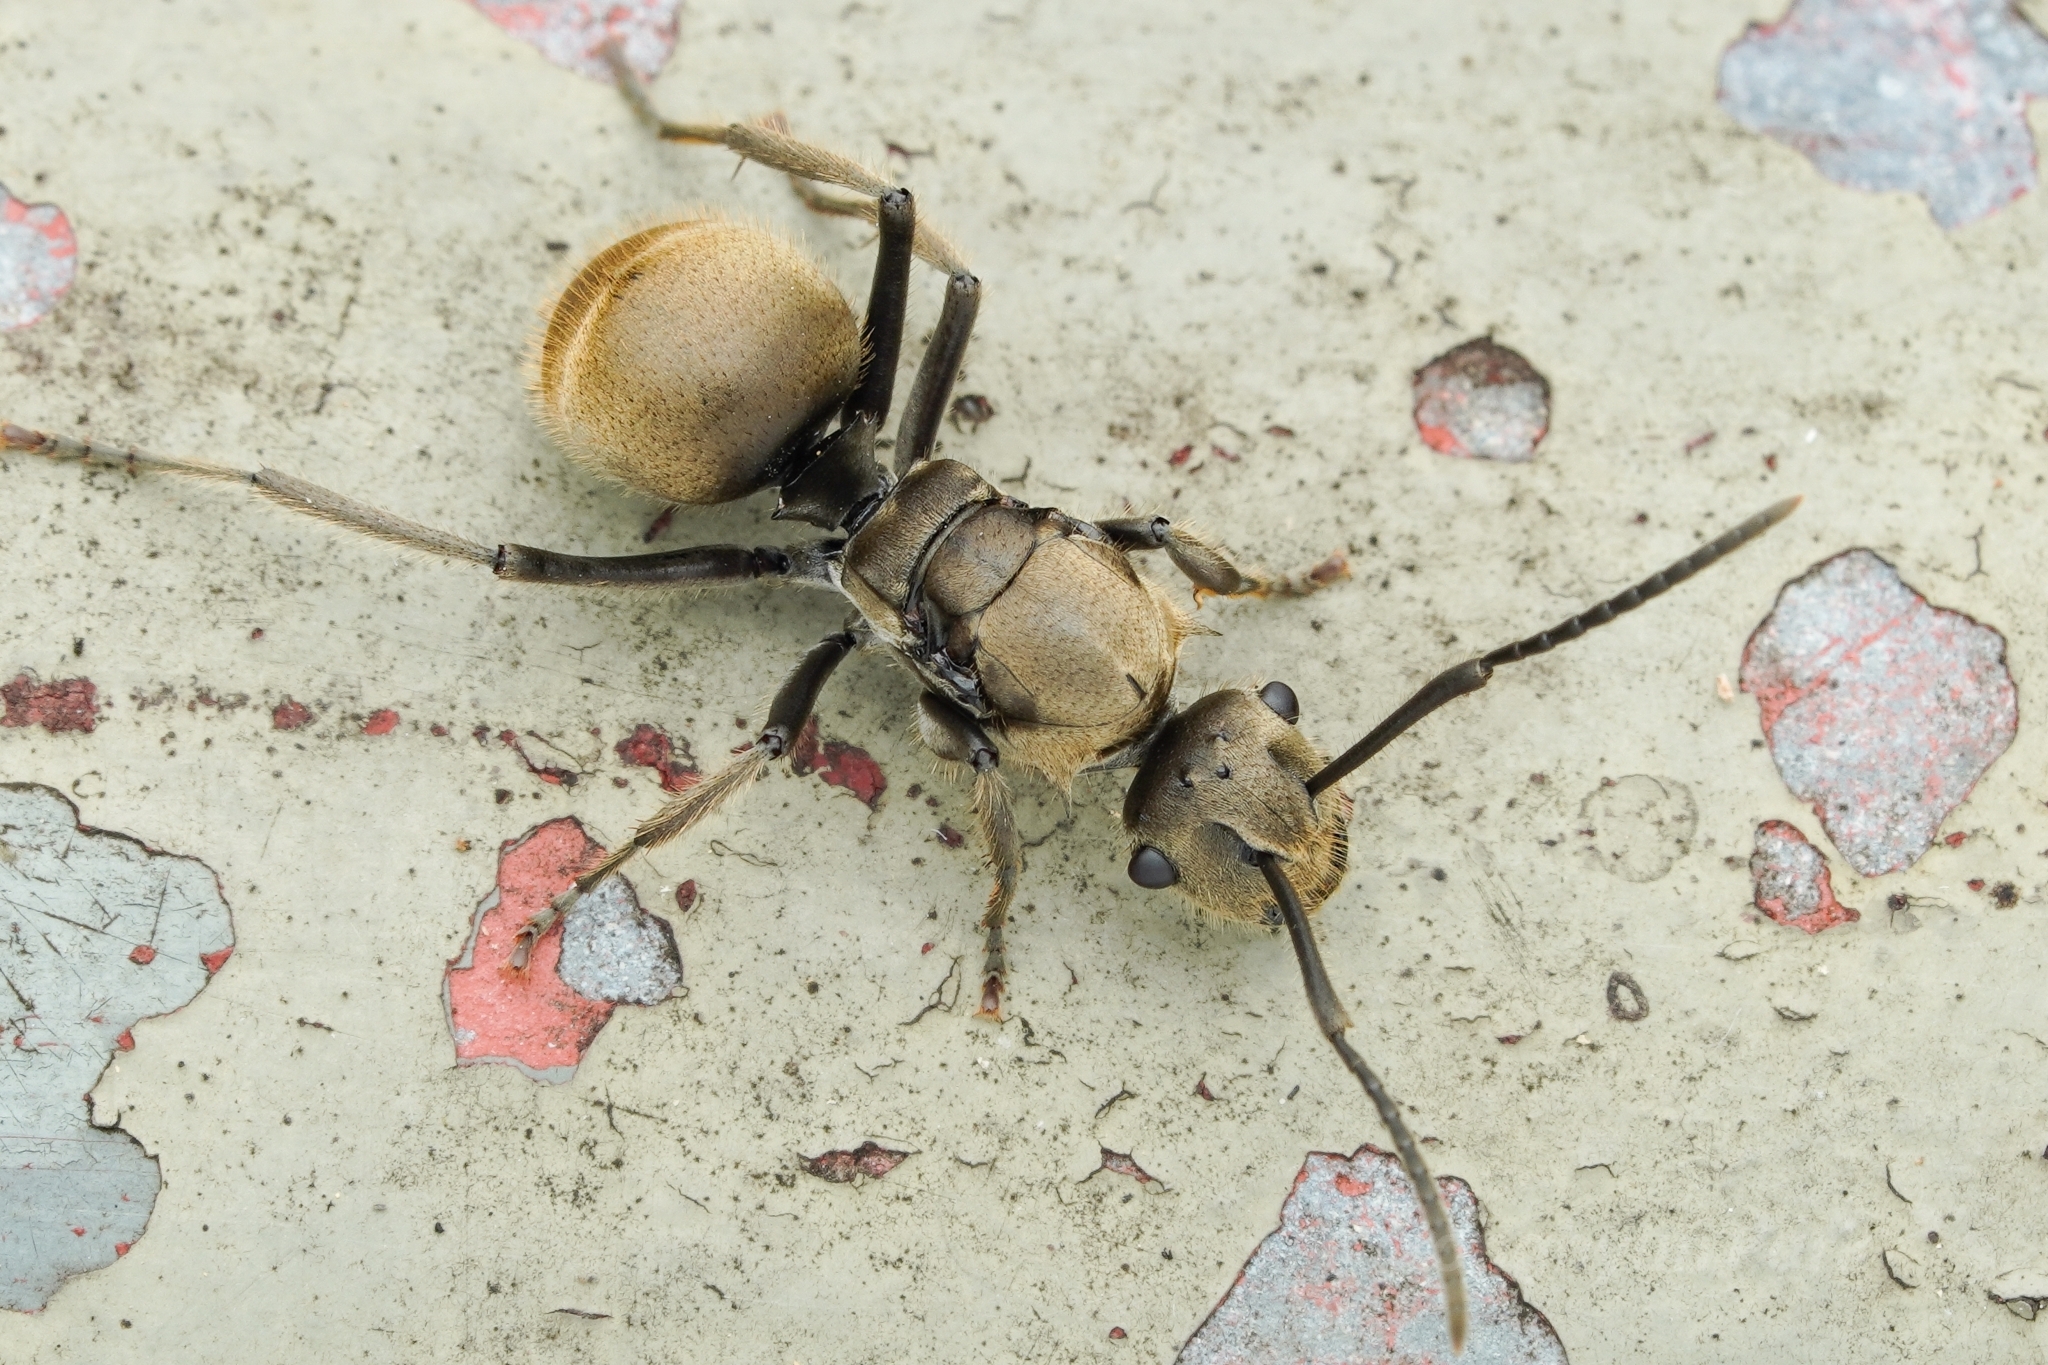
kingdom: Animalia
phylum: Arthropoda
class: Insecta
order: Hymenoptera
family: Formicidae
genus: Polyrhachis
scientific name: Polyrhachis vigilans
